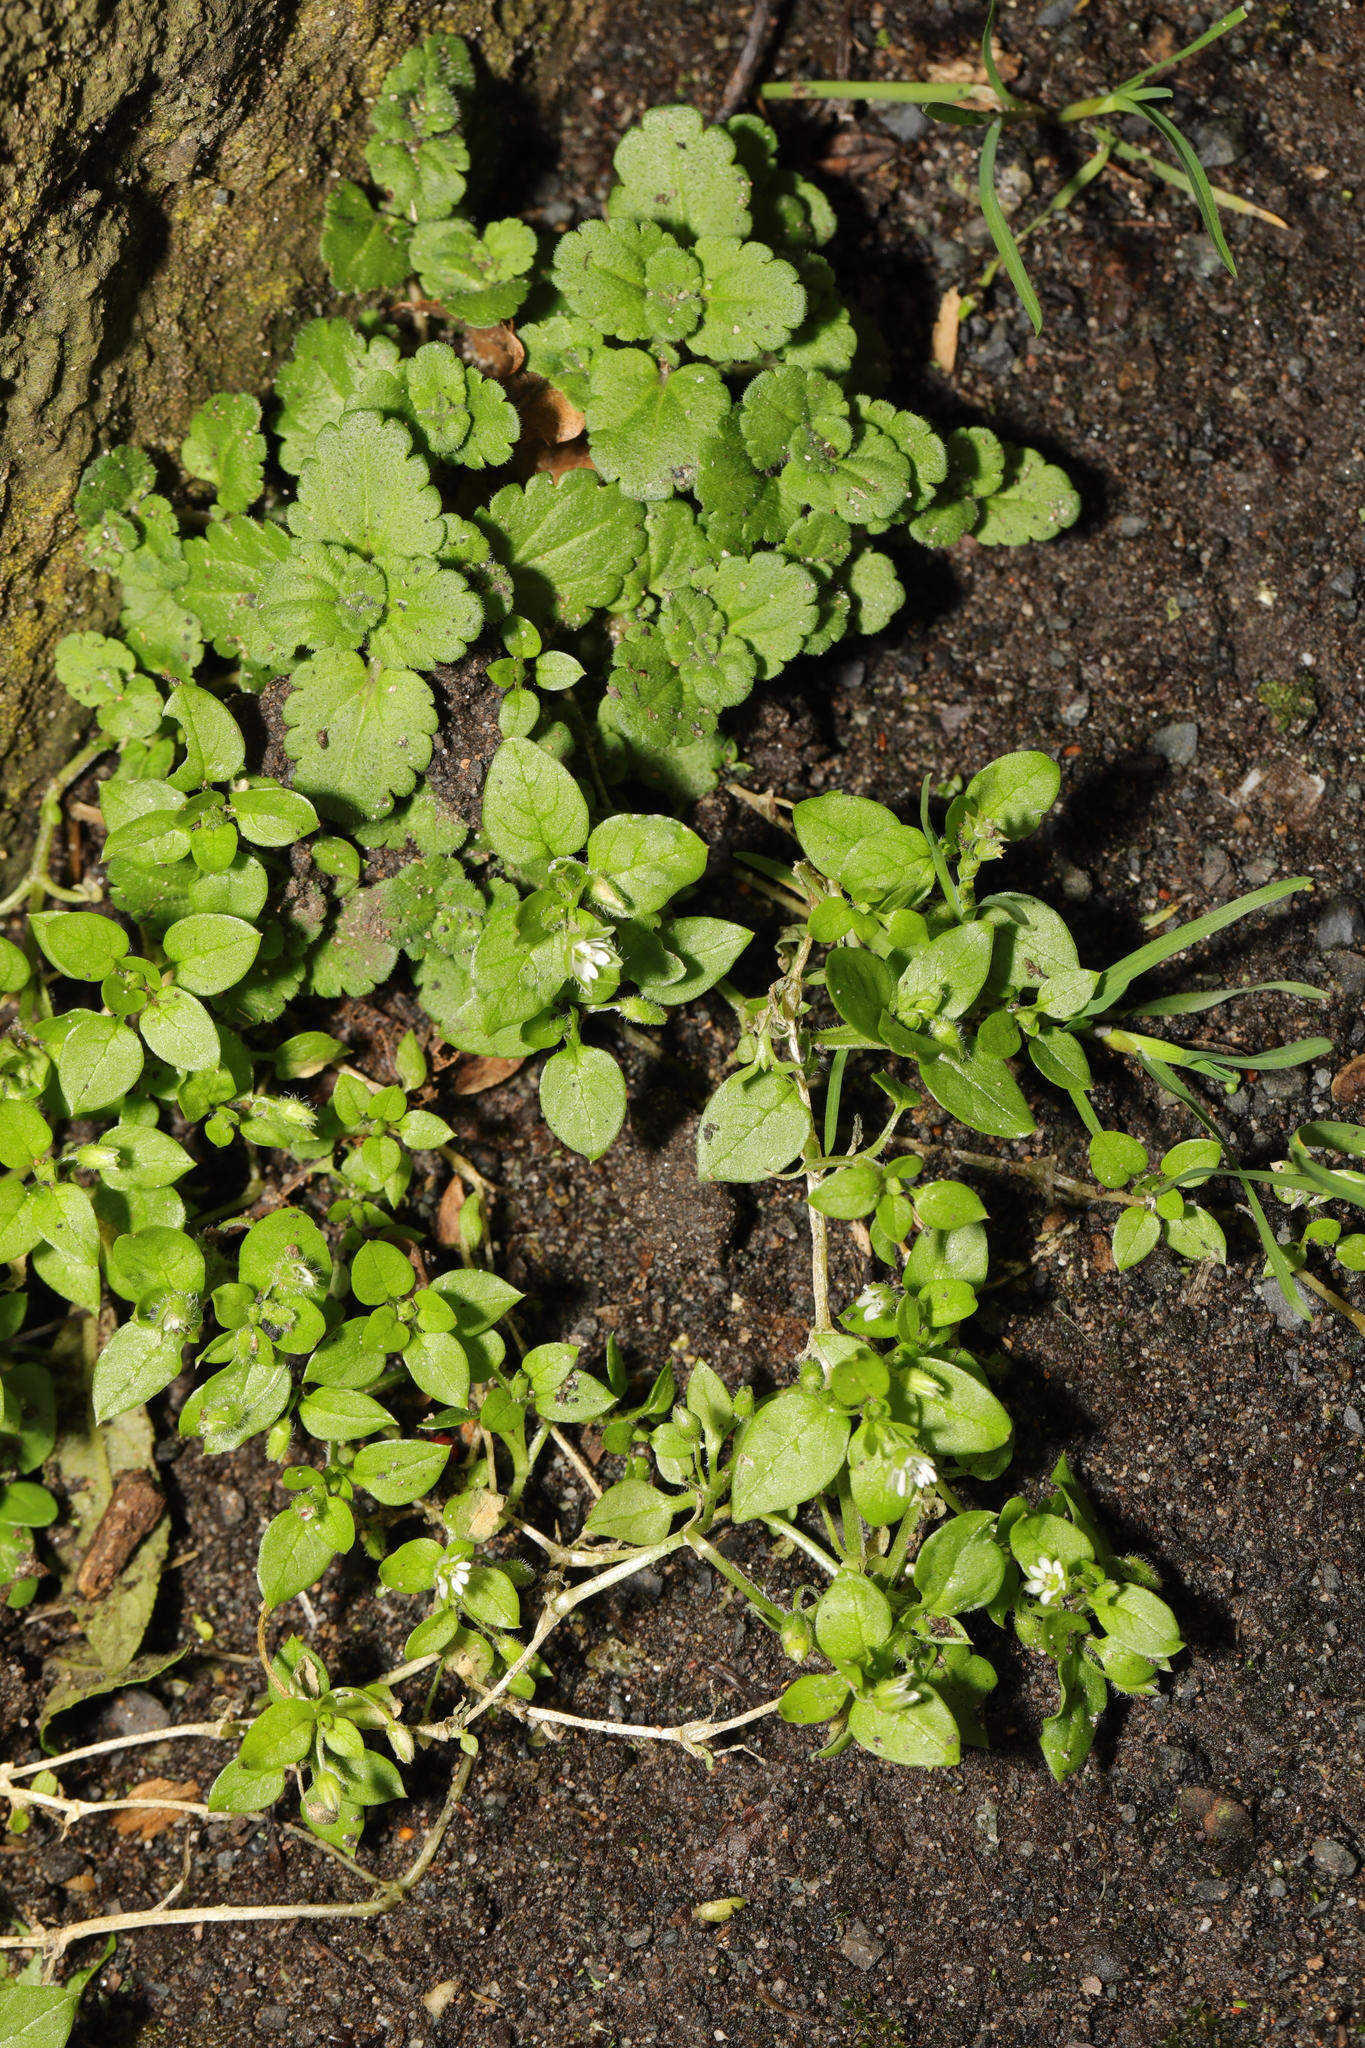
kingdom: Plantae
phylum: Tracheophyta
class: Magnoliopsida
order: Caryophyllales
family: Caryophyllaceae
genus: Stellaria
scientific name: Stellaria media
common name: Common chickweed
